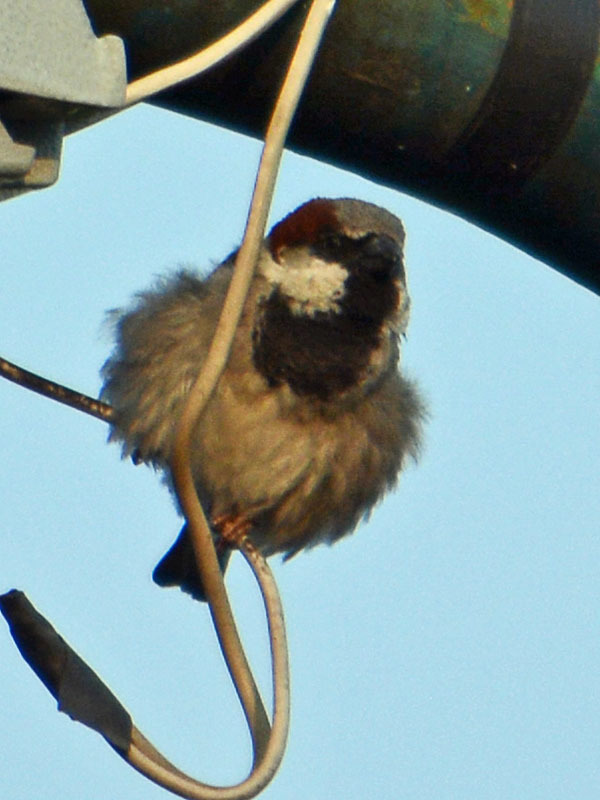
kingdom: Animalia
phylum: Chordata
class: Aves
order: Passeriformes
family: Passeridae
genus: Passer
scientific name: Passer domesticus
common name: House sparrow
